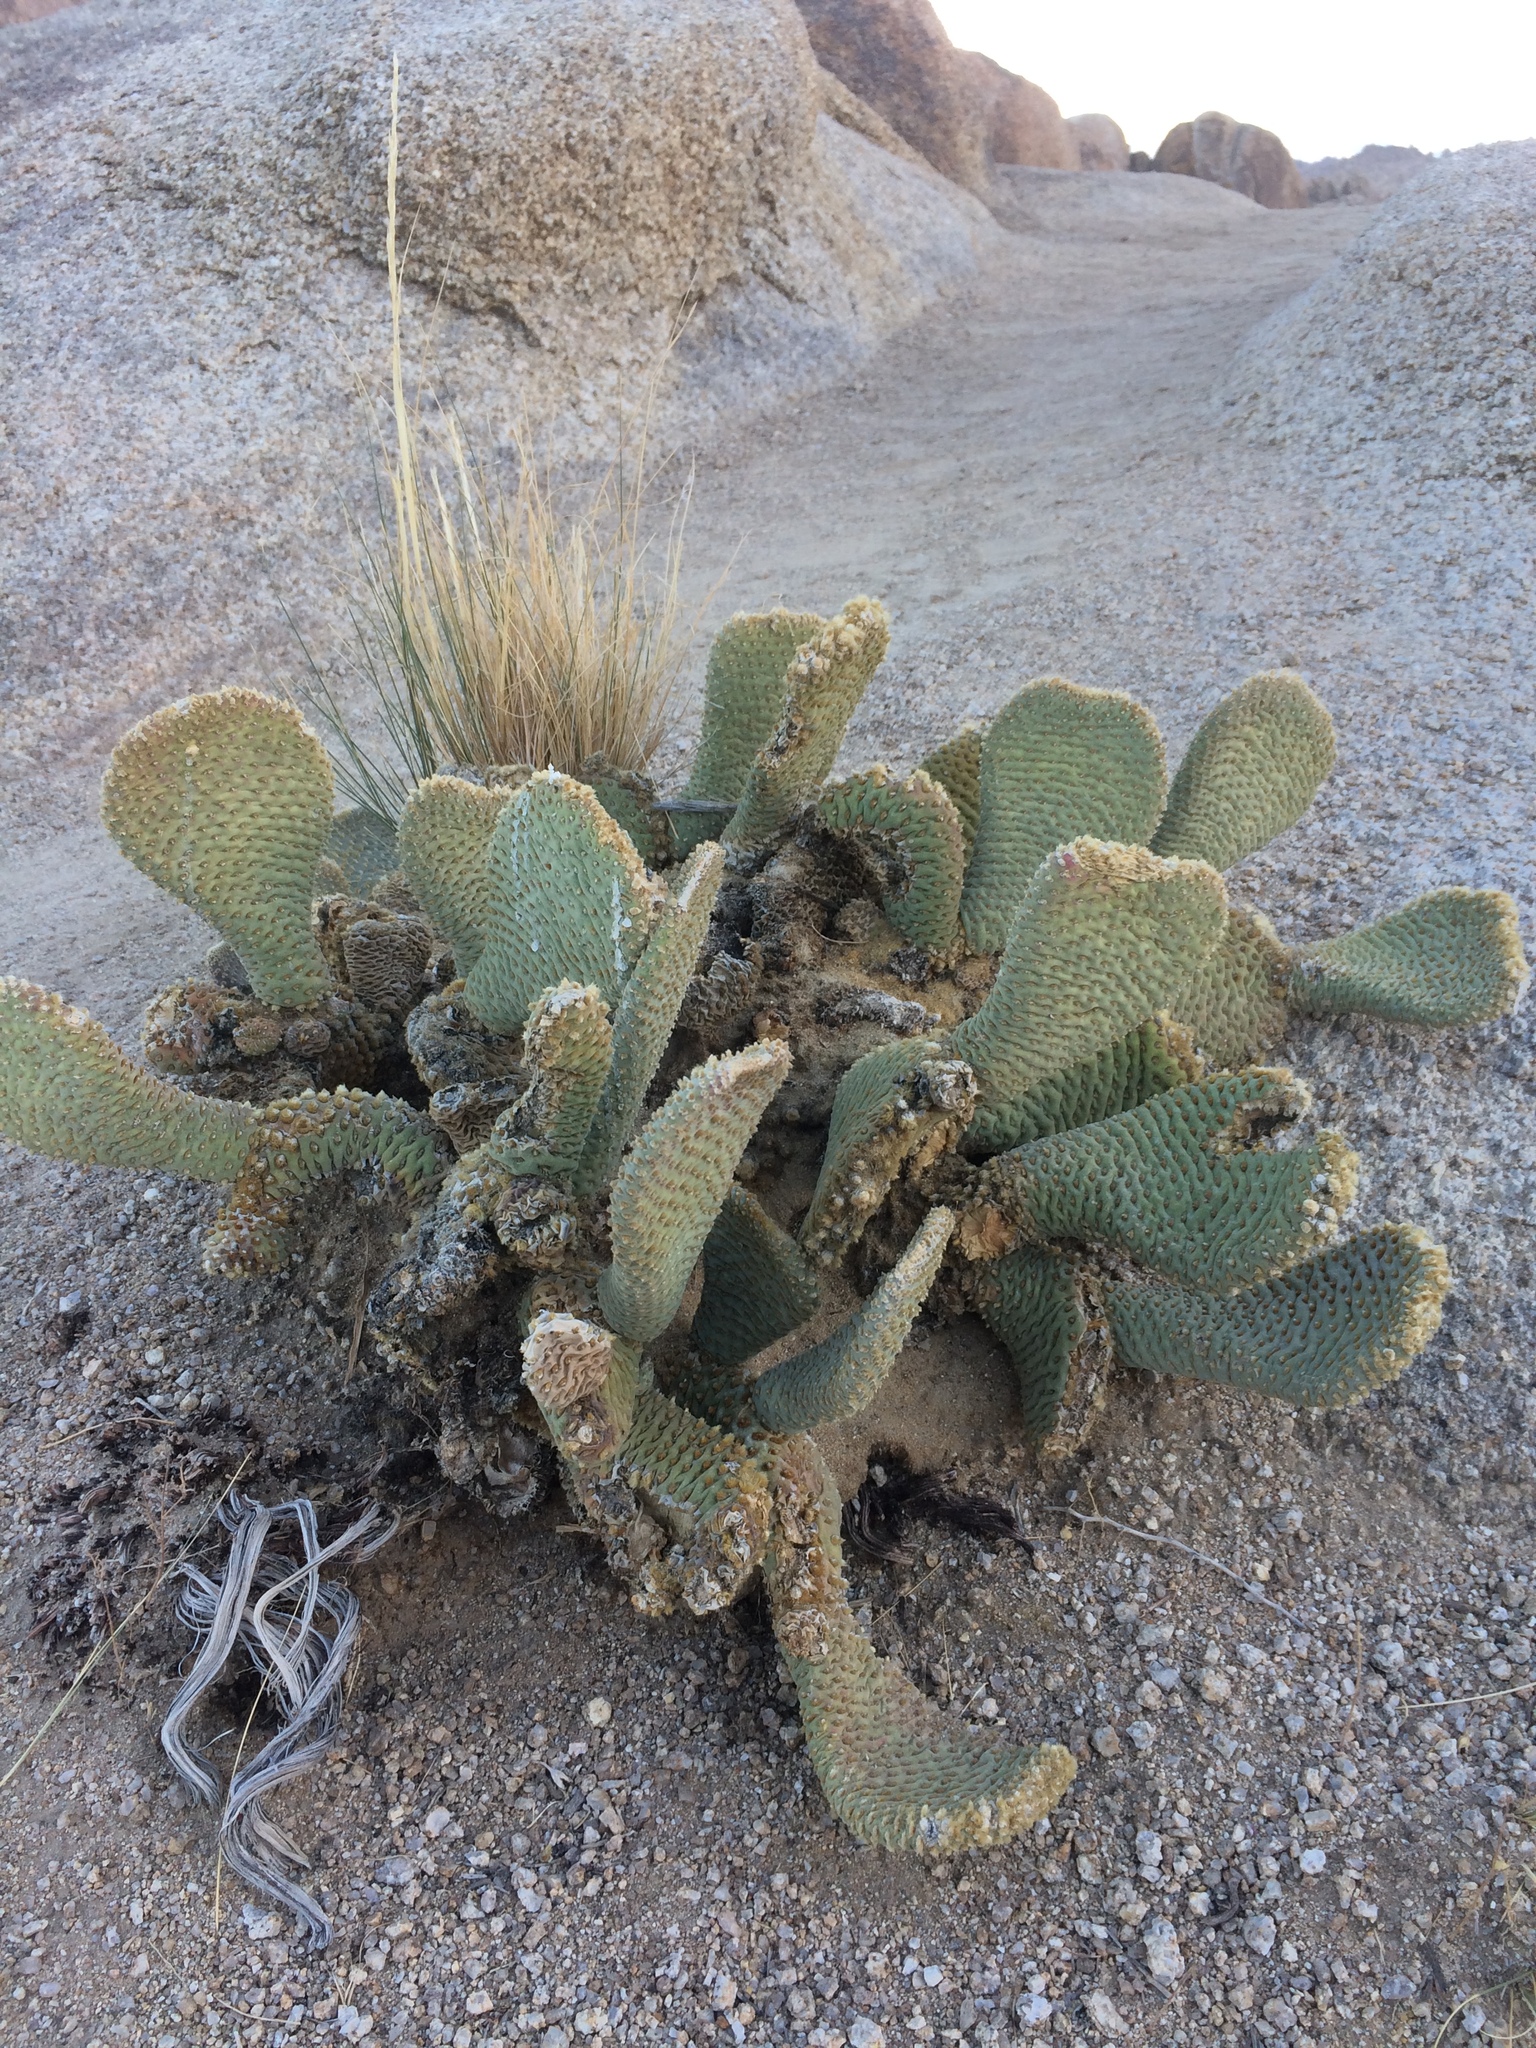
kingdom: Plantae
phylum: Tracheophyta
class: Magnoliopsida
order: Caryophyllales
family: Cactaceae
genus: Opuntia
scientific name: Opuntia basilaris
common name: Beavertail prickly-pear
